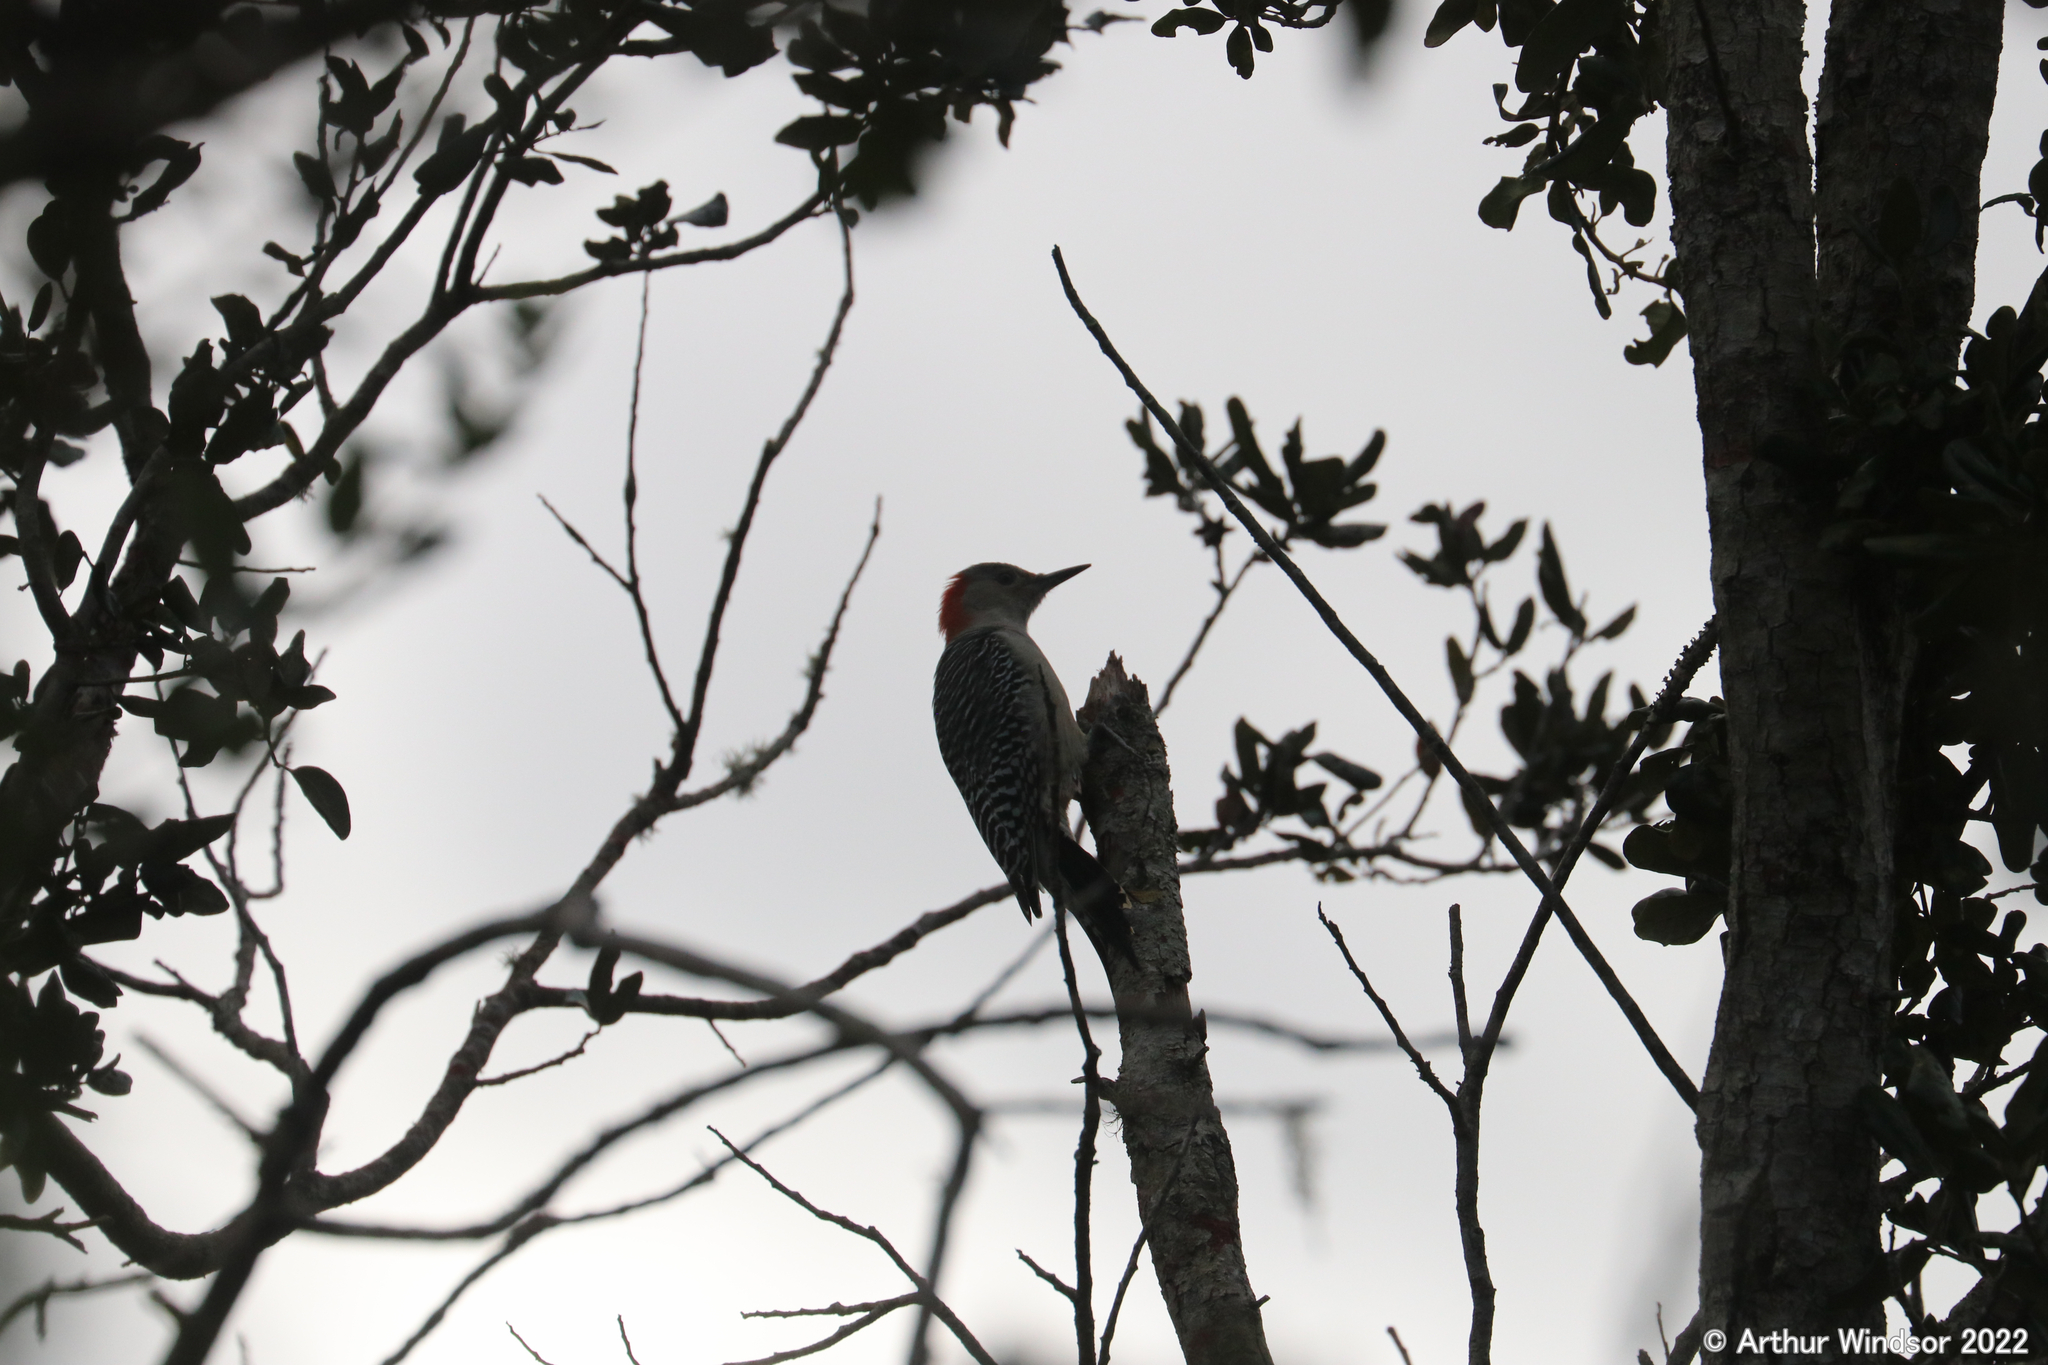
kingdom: Animalia
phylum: Chordata
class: Aves
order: Piciformes
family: Picidae
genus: Melanerpes
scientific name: Melanerpes carolinus
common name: Red-bellied woodpecker
